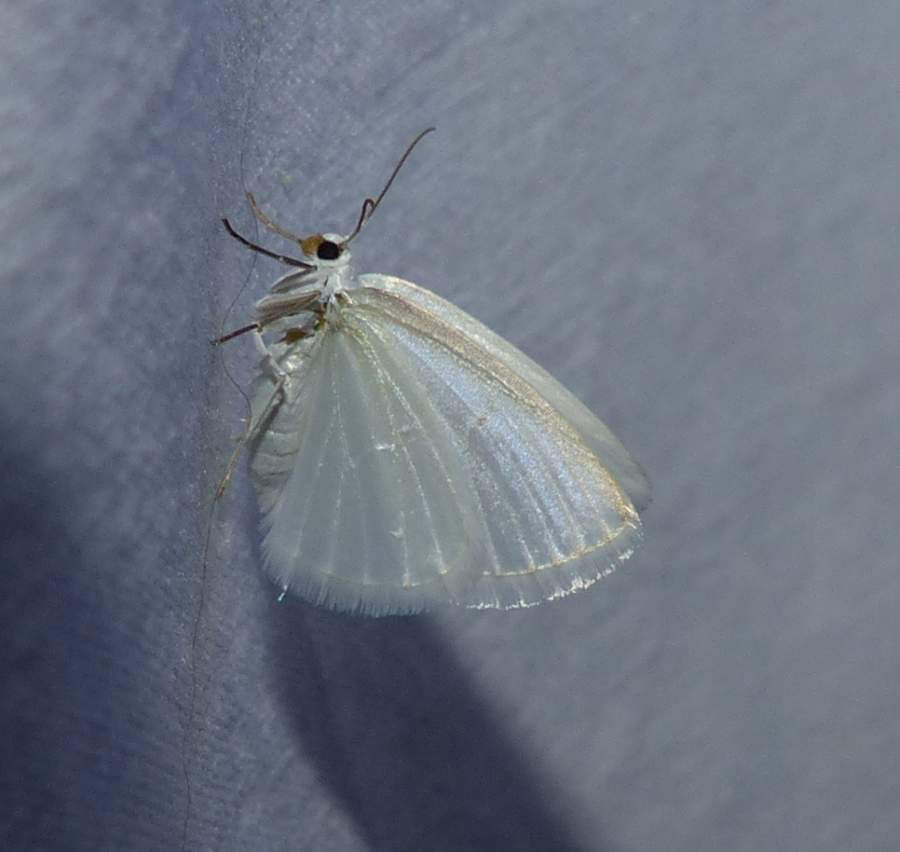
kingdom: Animalia
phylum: Arthropoda
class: Insecta
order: Lepidoptera
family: Geometridae
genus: Lomographa
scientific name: Lomographa vestaliata
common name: White spring moth
